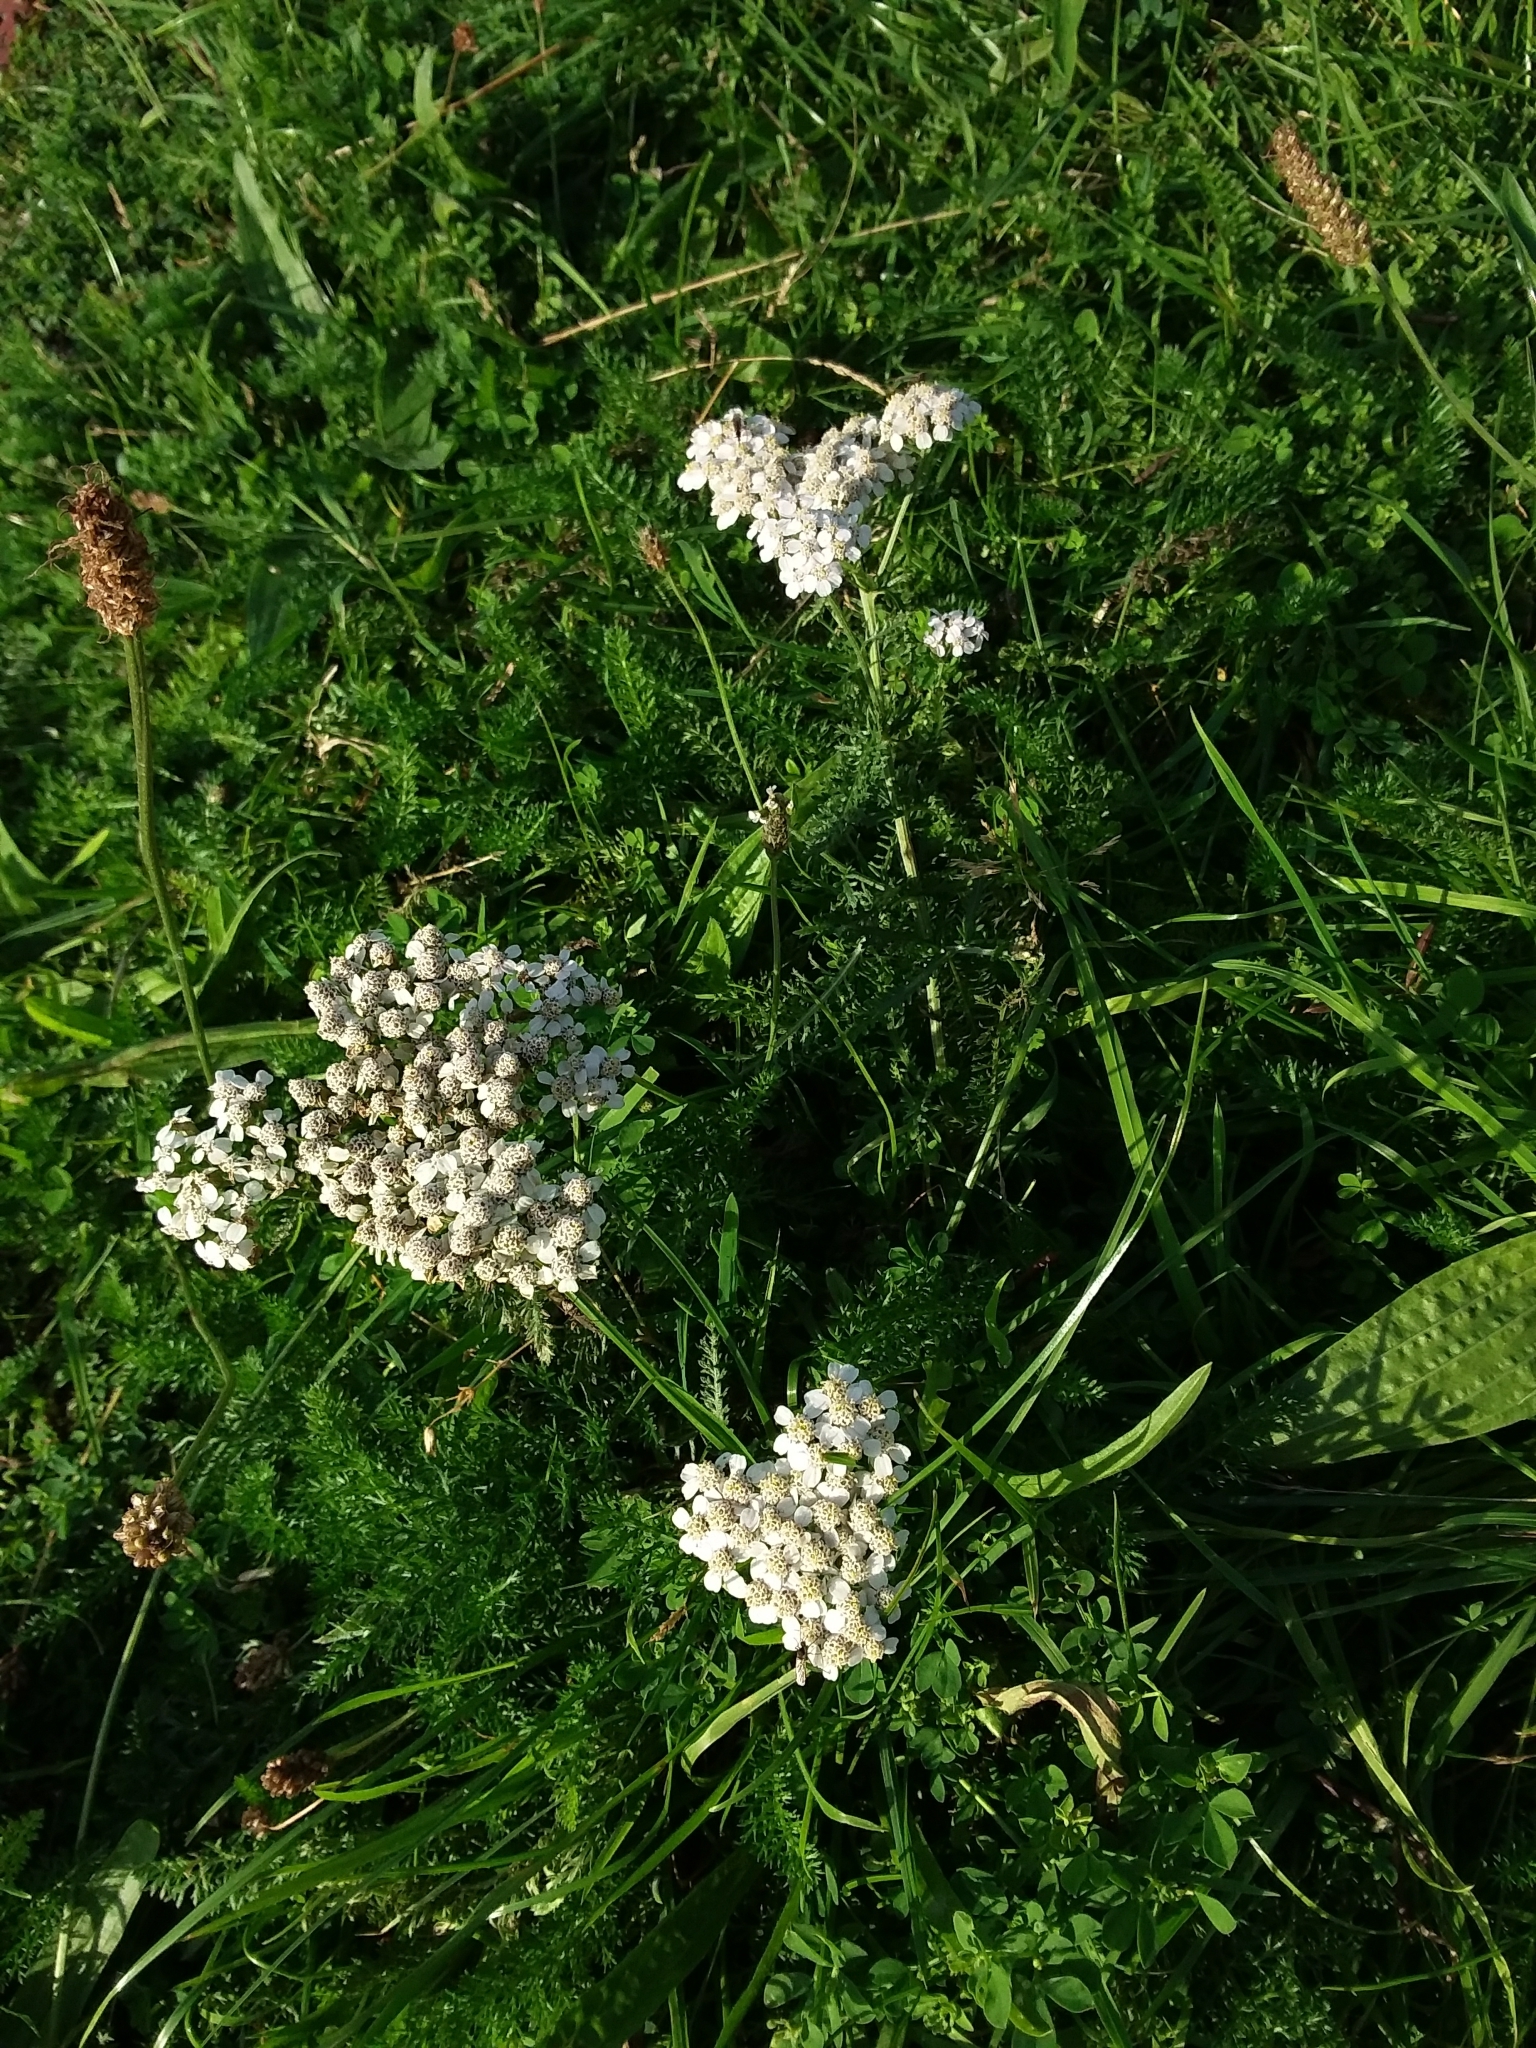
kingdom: Plantae
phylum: Tracheophyta
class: Magnoliopsida
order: Asterales
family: Asteraceae
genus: Achillea
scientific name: Achillea millefolium
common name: Yarrow
